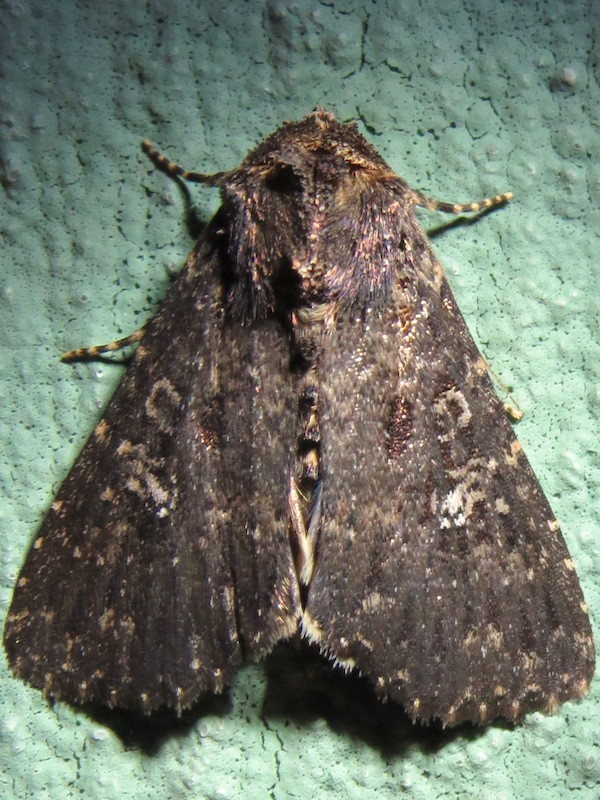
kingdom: Animalia
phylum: Arthropoda
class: Insecta
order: Lepidoptera
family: Noctuidae
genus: Condica
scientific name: Condica vecors
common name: Dusky groundling
